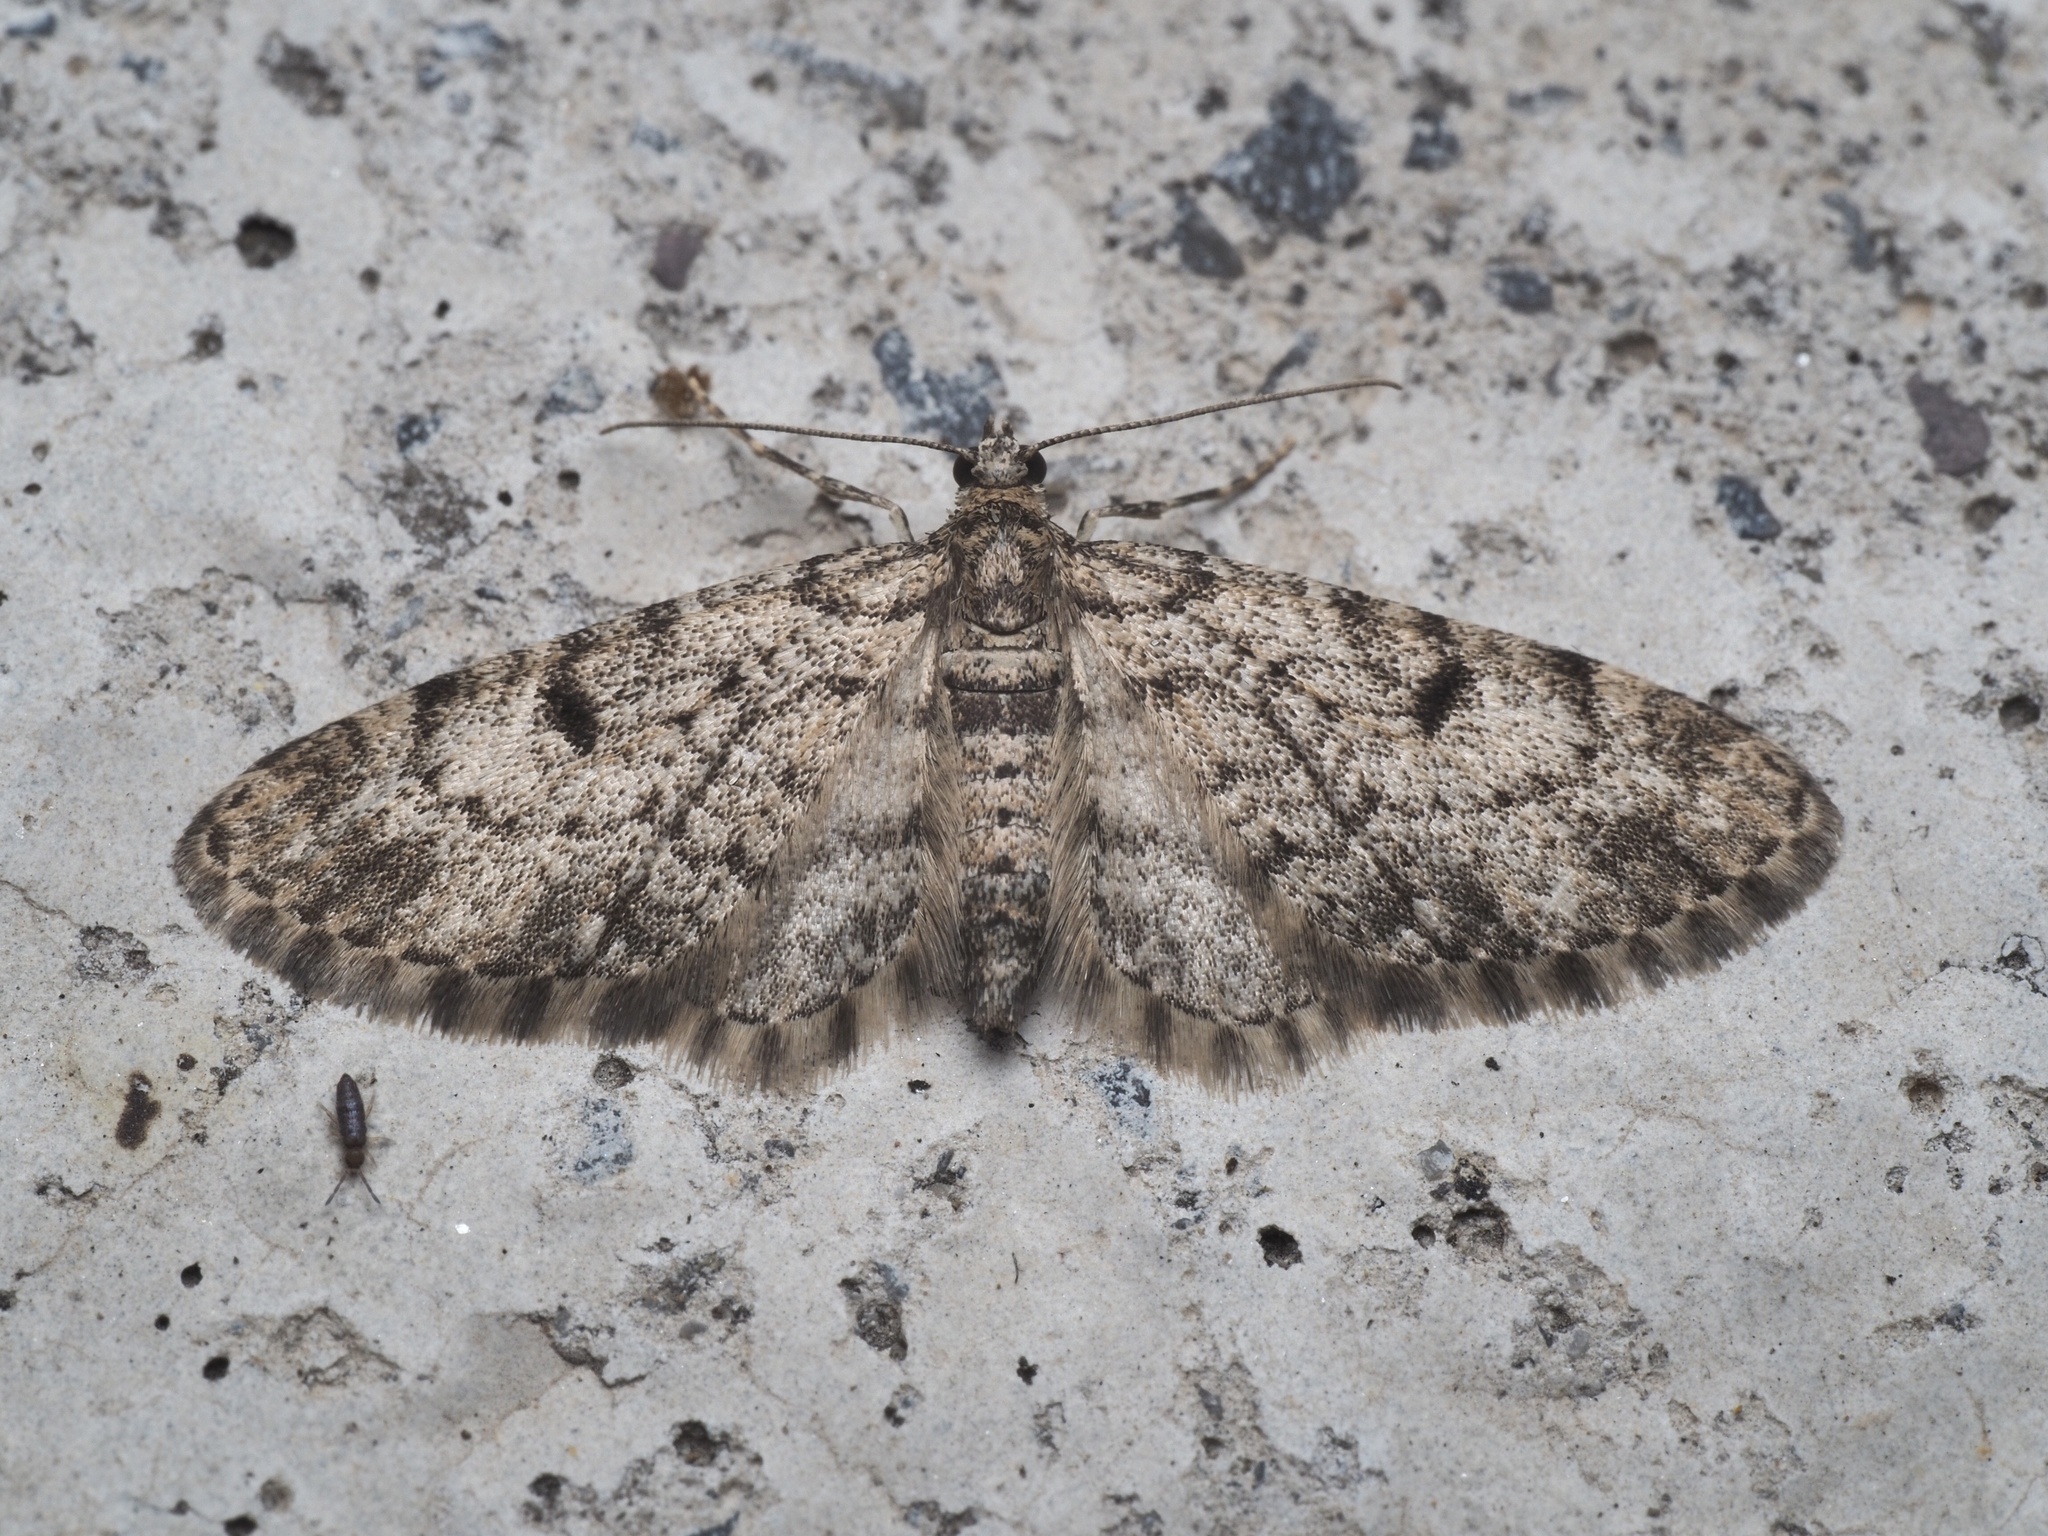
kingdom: Animalia
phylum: Arthropoda
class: Insecta
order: Lepidoptera
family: Geometridae
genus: Eupithecia
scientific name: Eupithecia tantillaria
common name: Dwarf pug
